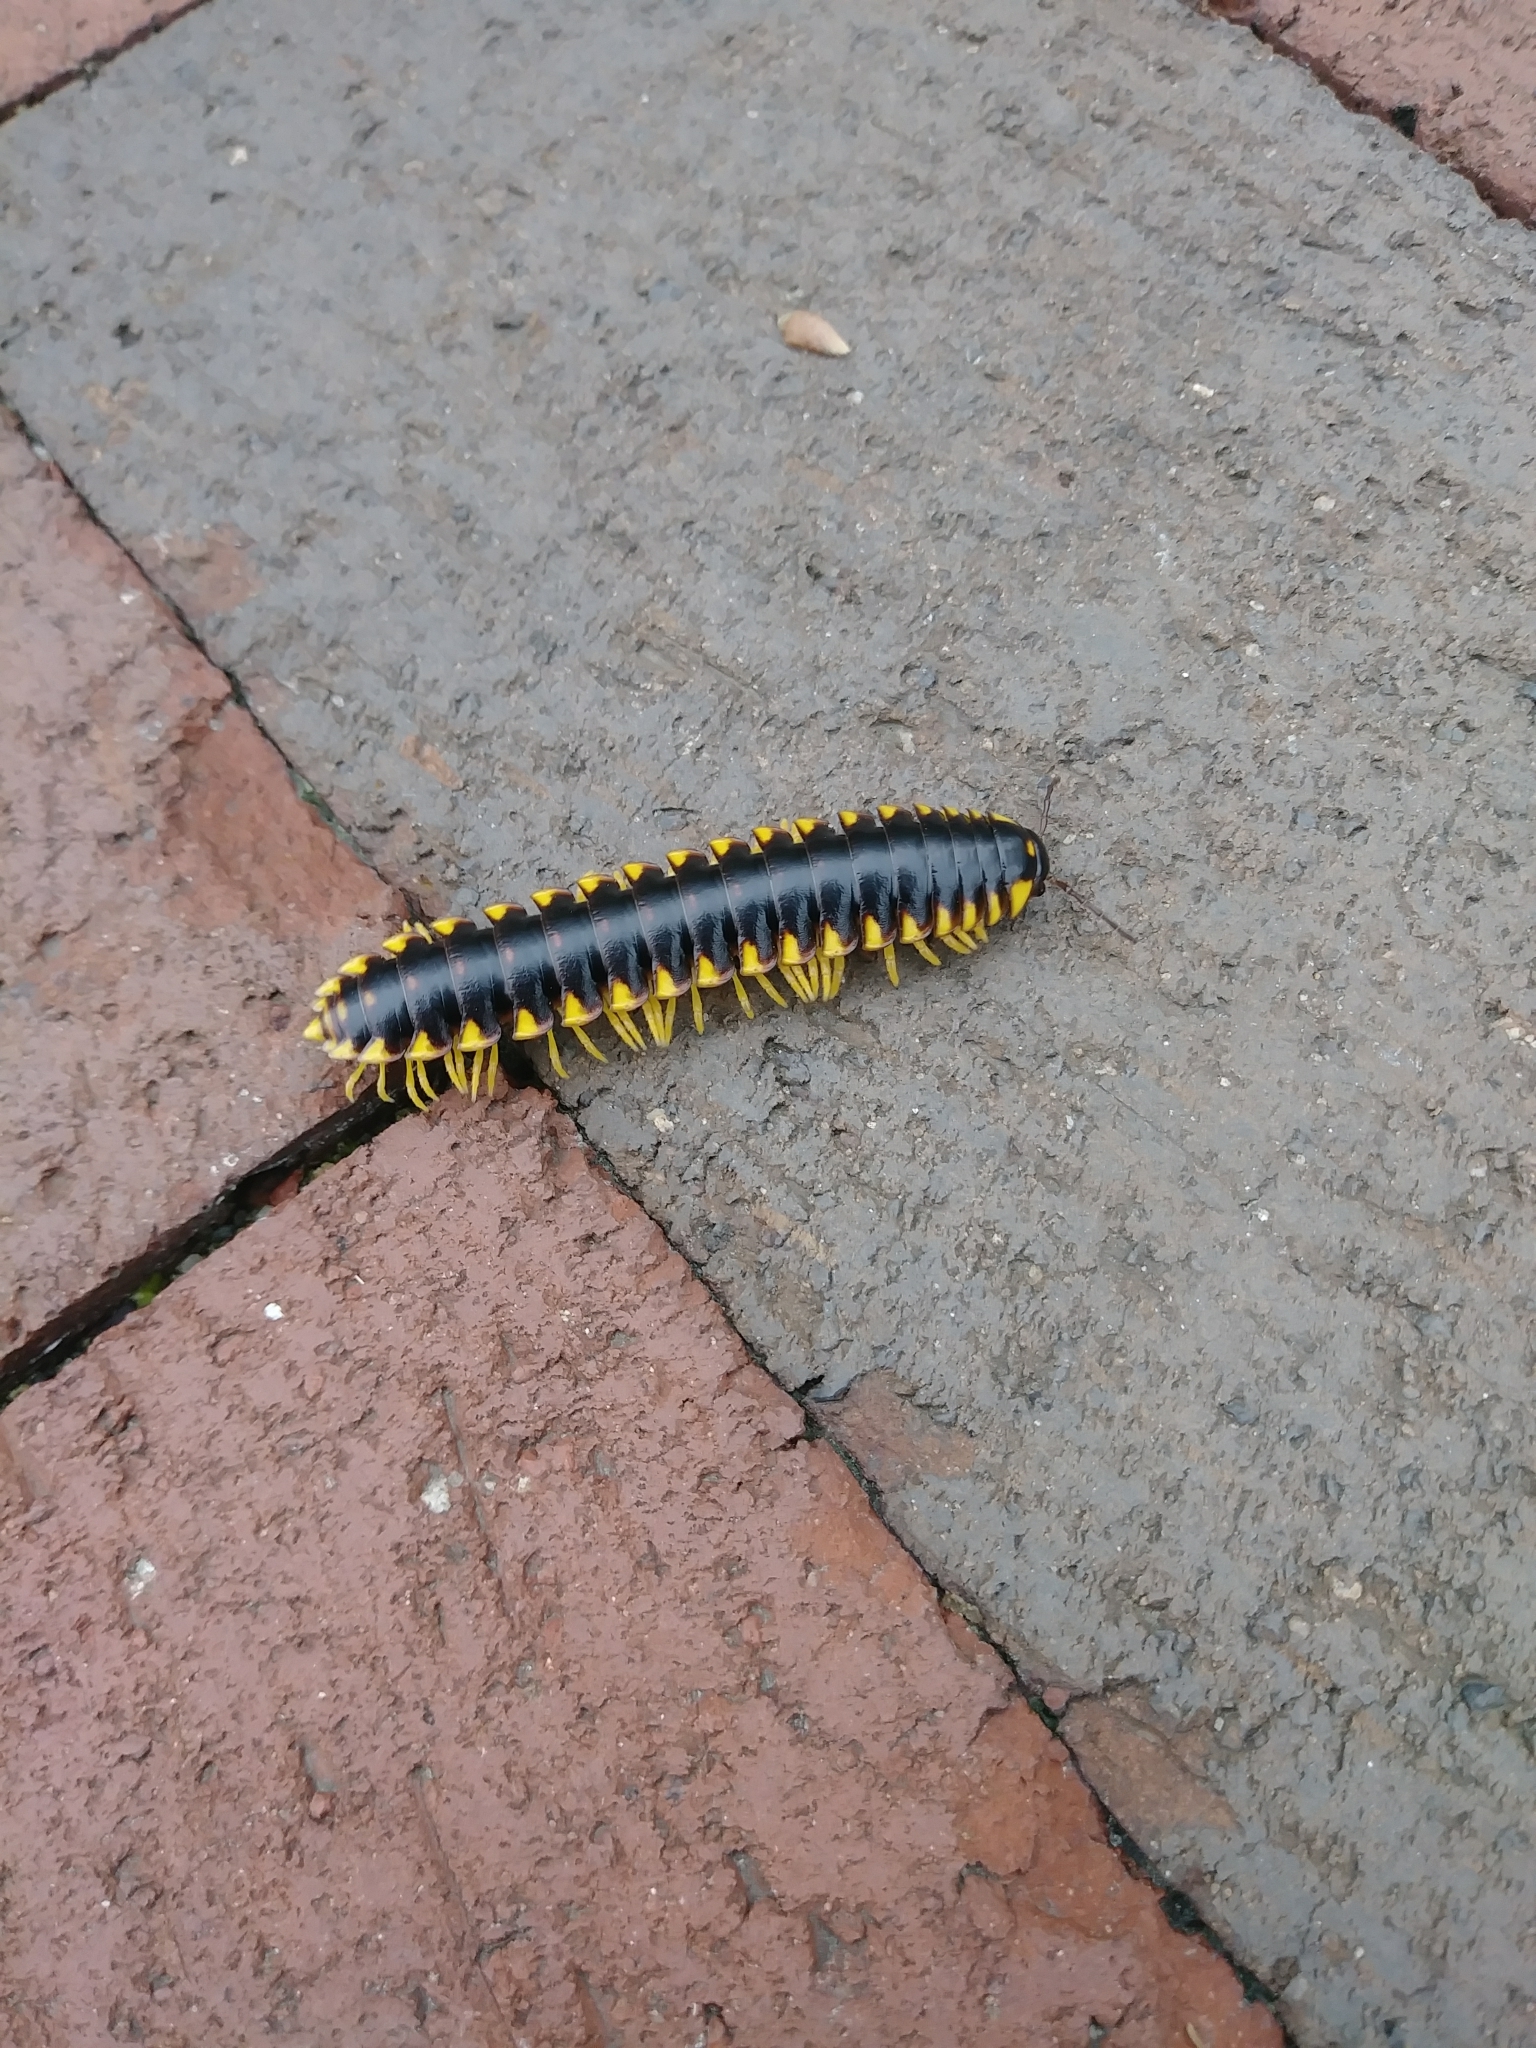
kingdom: Animalia
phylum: Arthropoda
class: Diplopoda
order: Polydesmida
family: Xystodesmidae
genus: Apheloria
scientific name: Apheloria tigana
